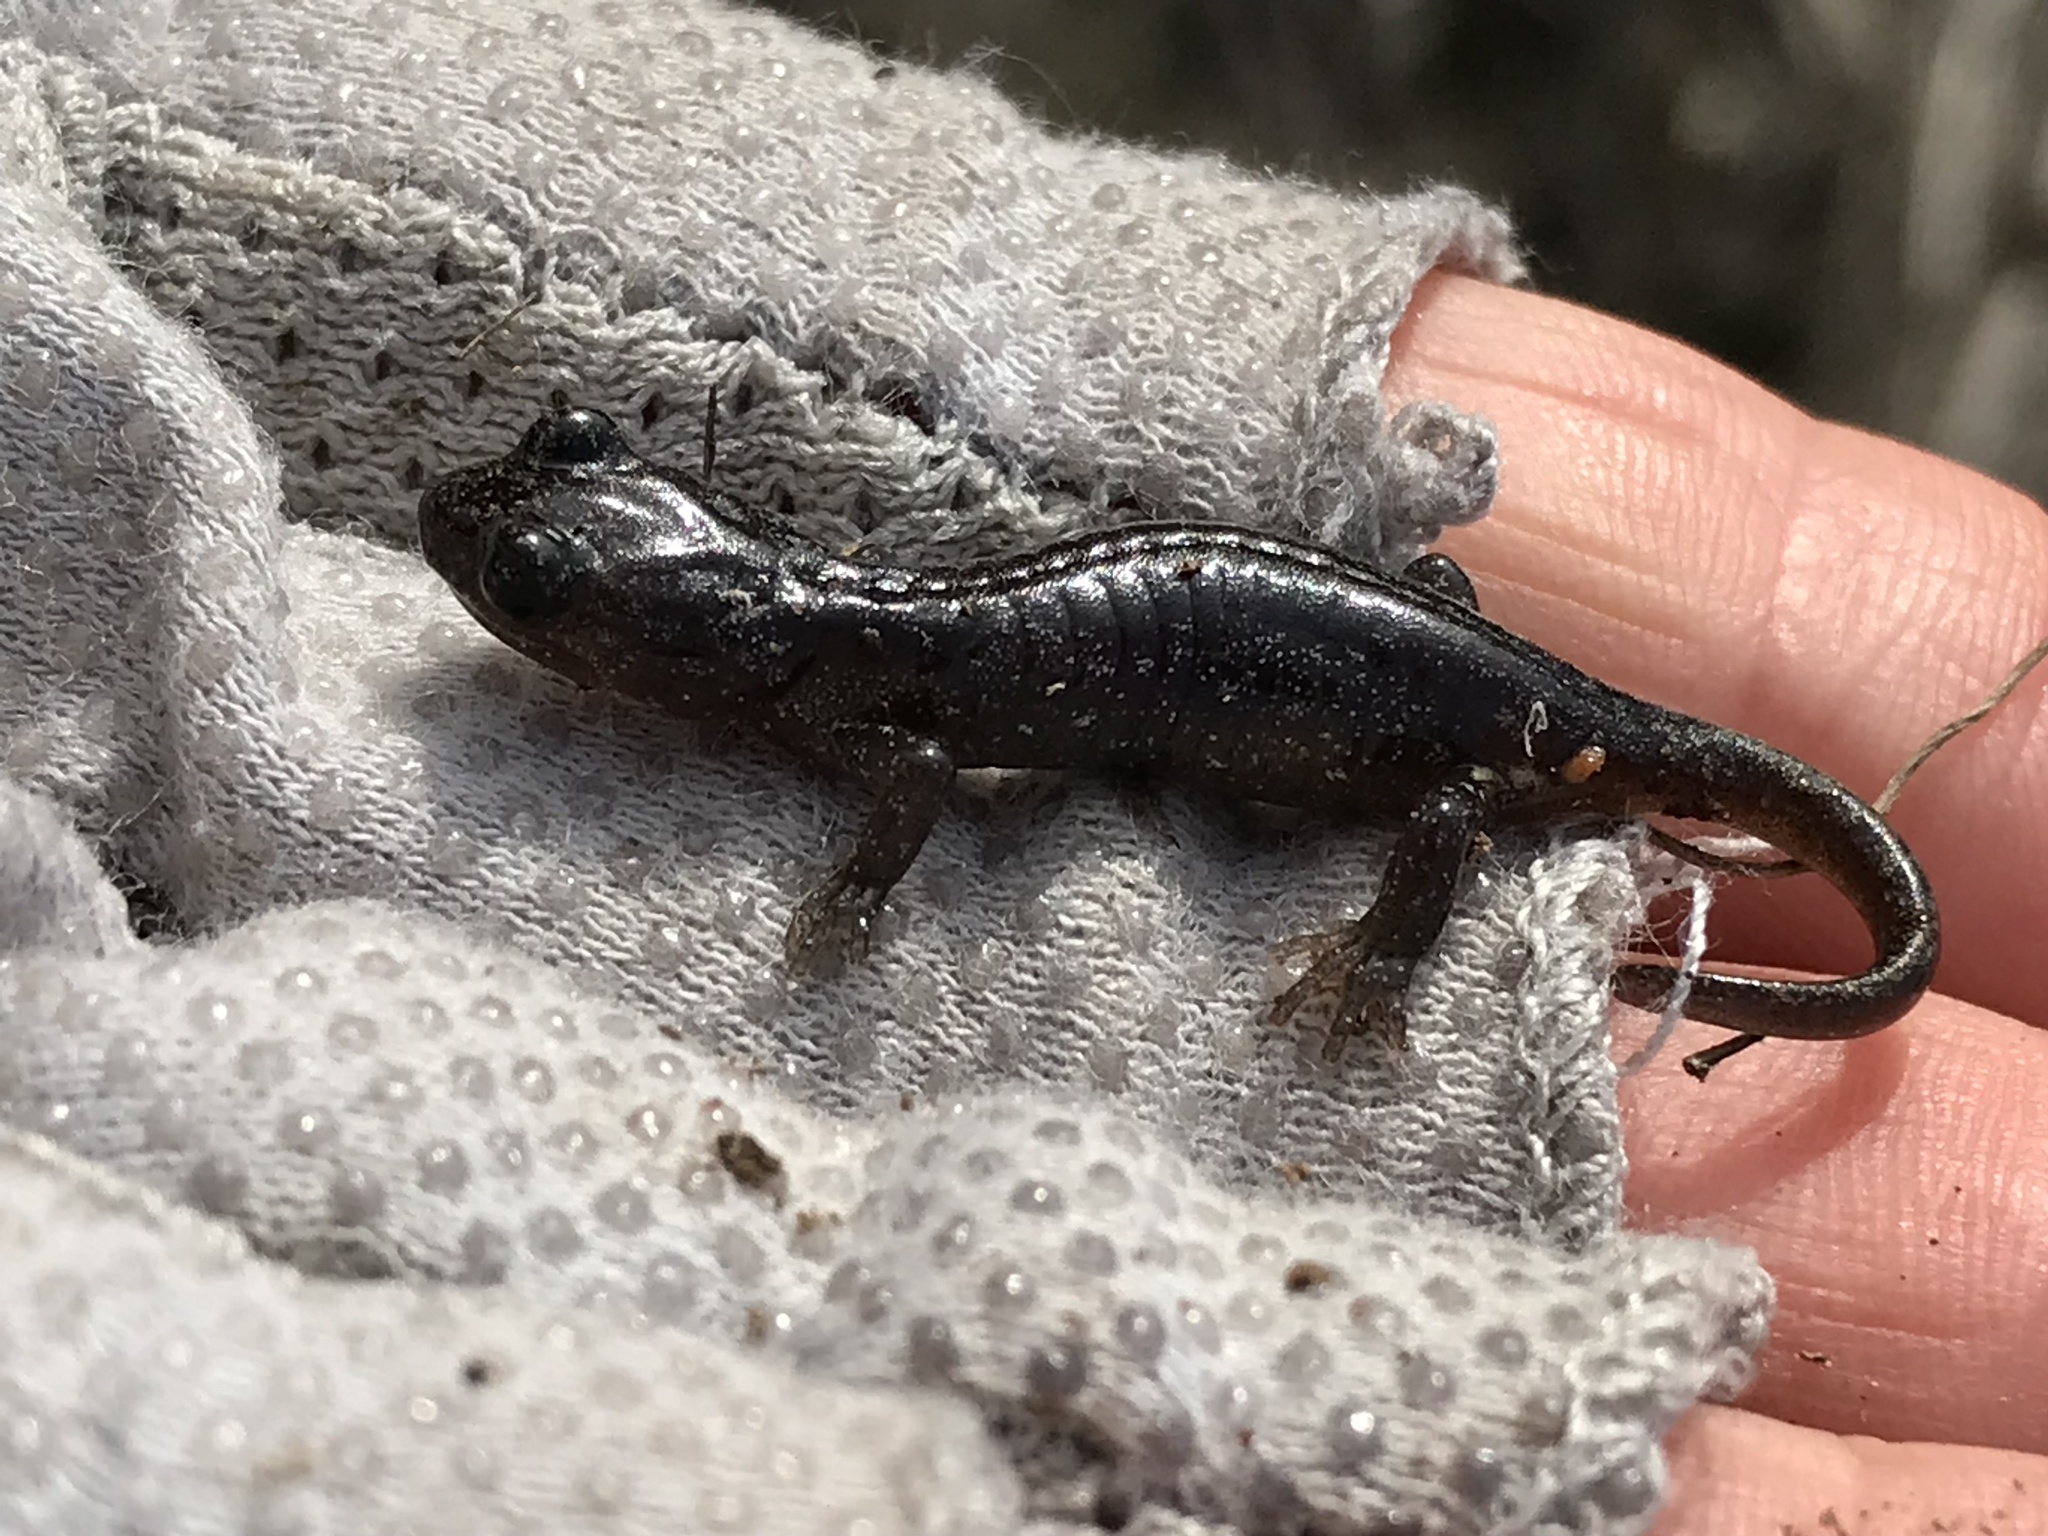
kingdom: Animalia
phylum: Chordata
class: Amphibia
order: Caudata
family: Plethodontidae
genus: Aneides
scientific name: Aneides lugubris
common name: Arboreal salamander
